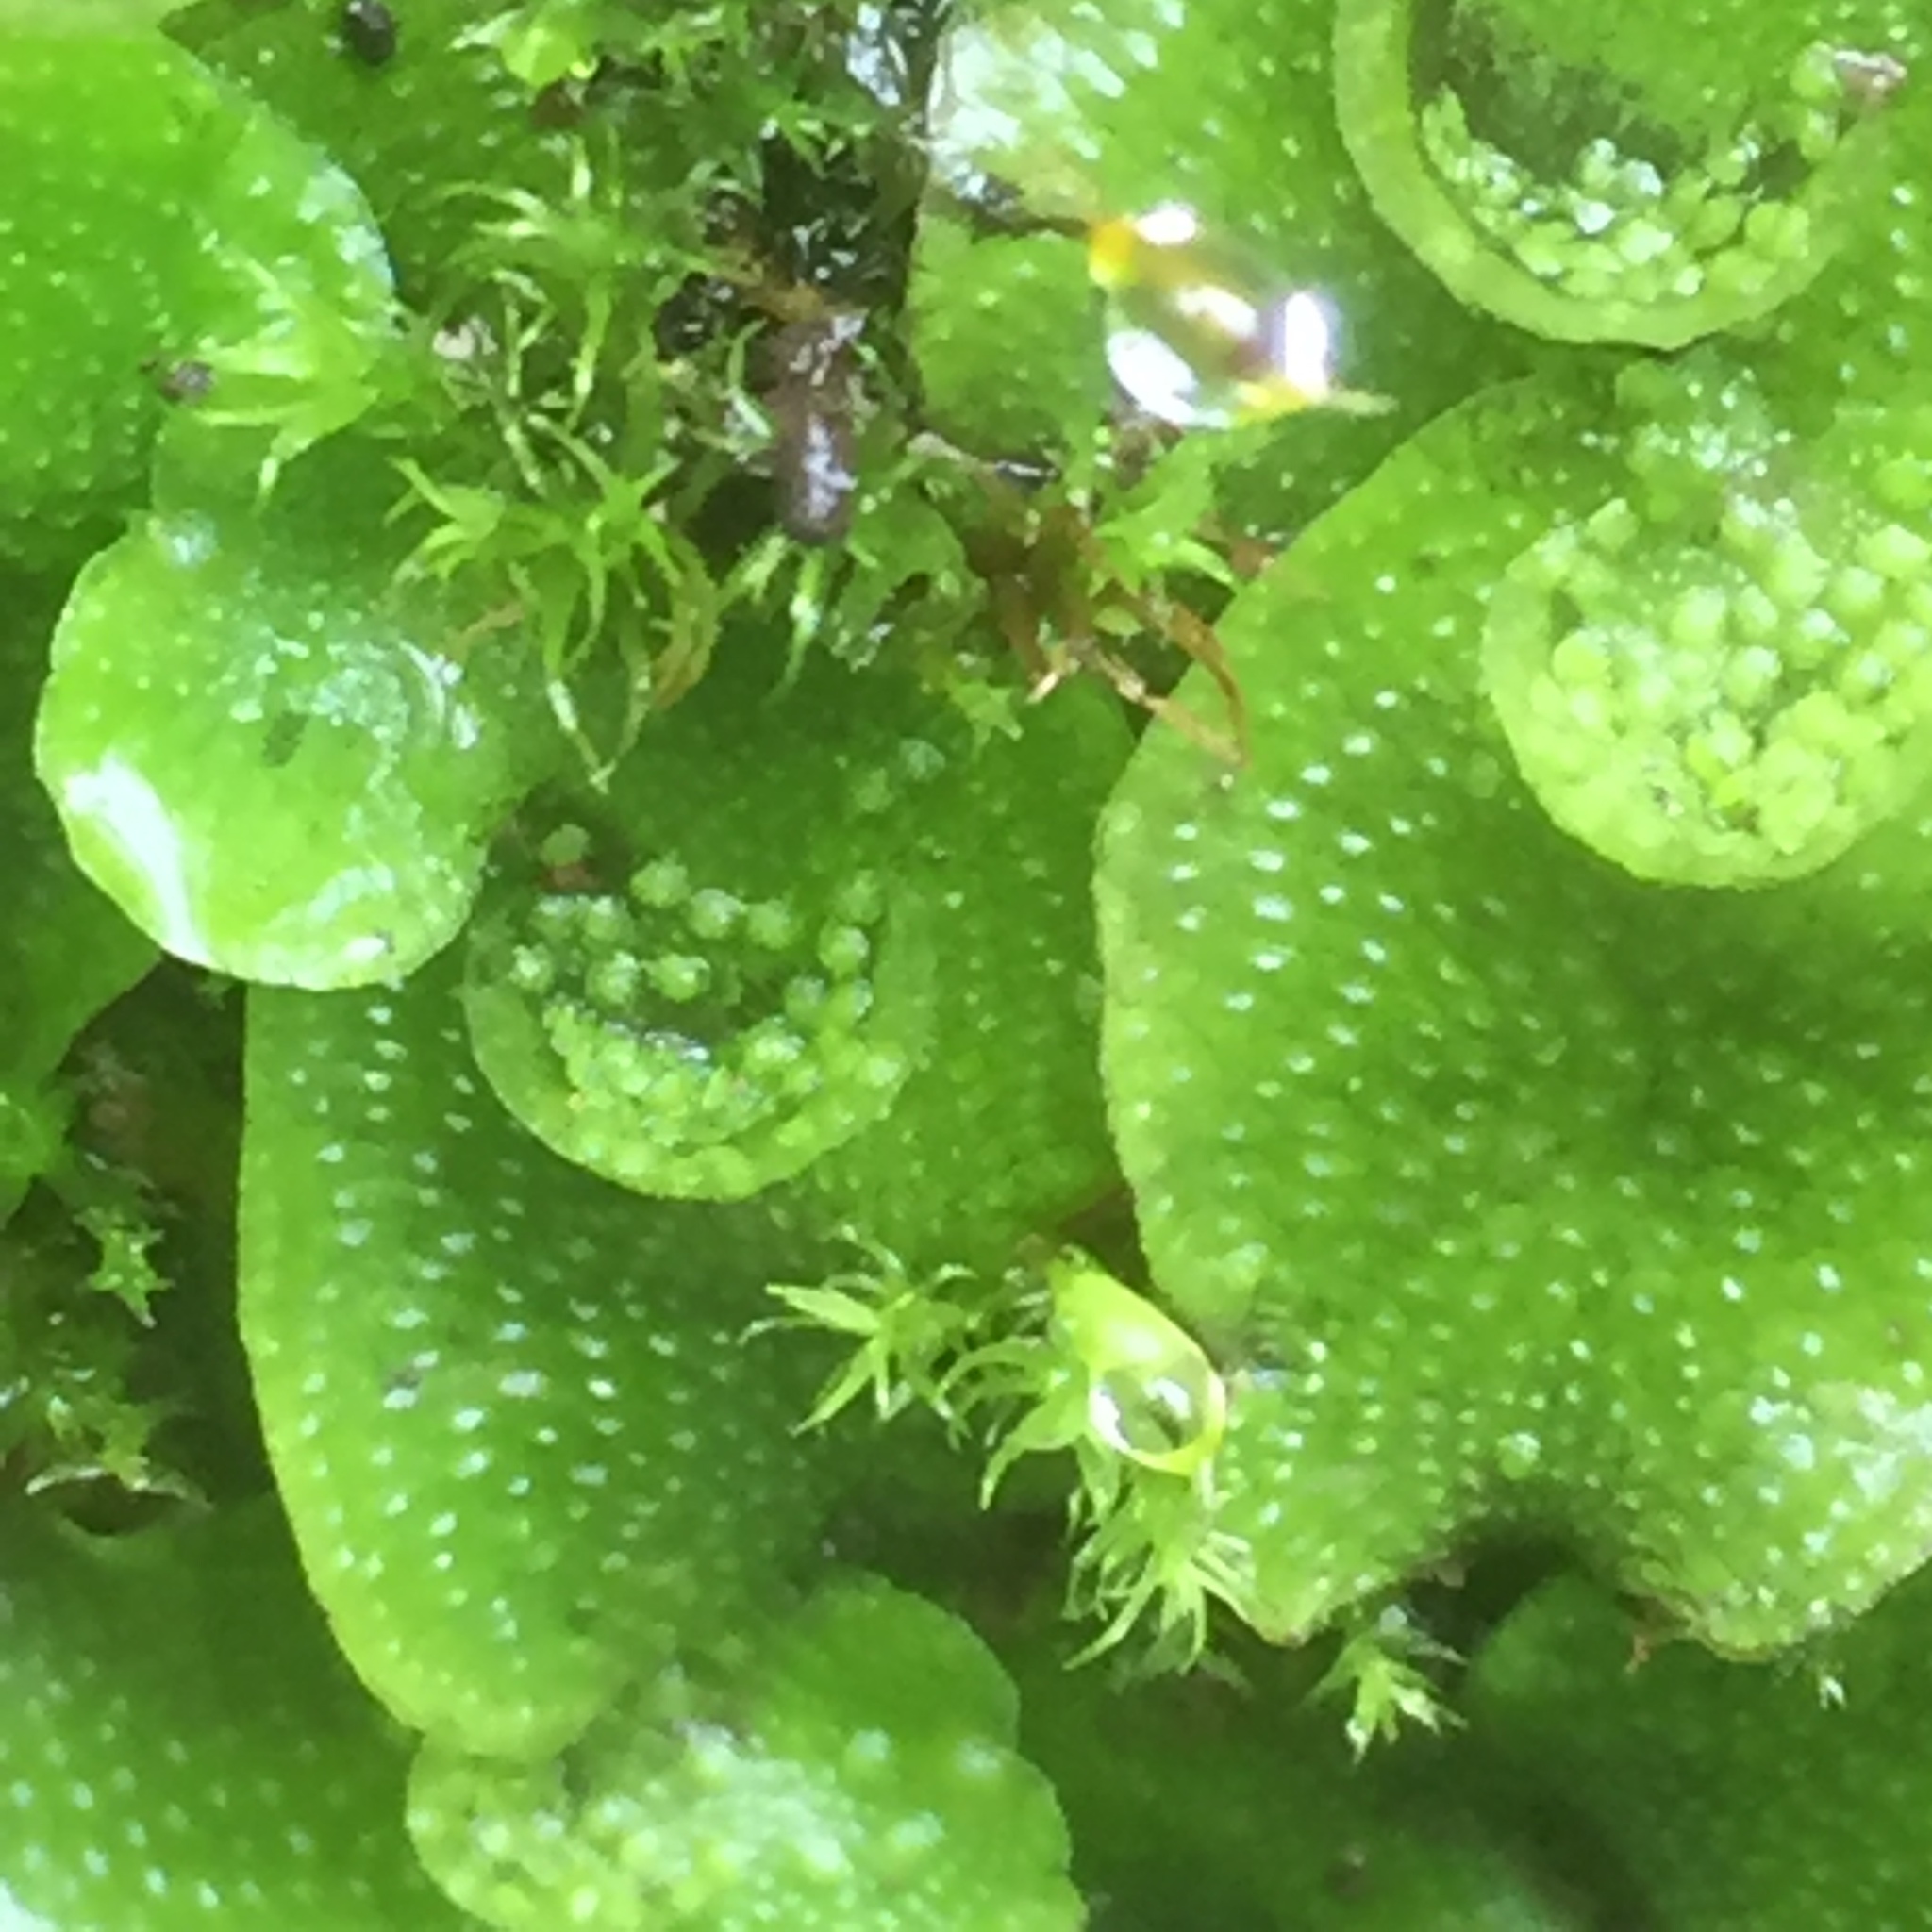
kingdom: Plantae
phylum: Marchantiophyta
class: Marchantiopsida
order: Lunulariales
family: Lunulariaceae
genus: Lunularia
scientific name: Lunularia cruciata
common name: Crescent-cup liverwort
